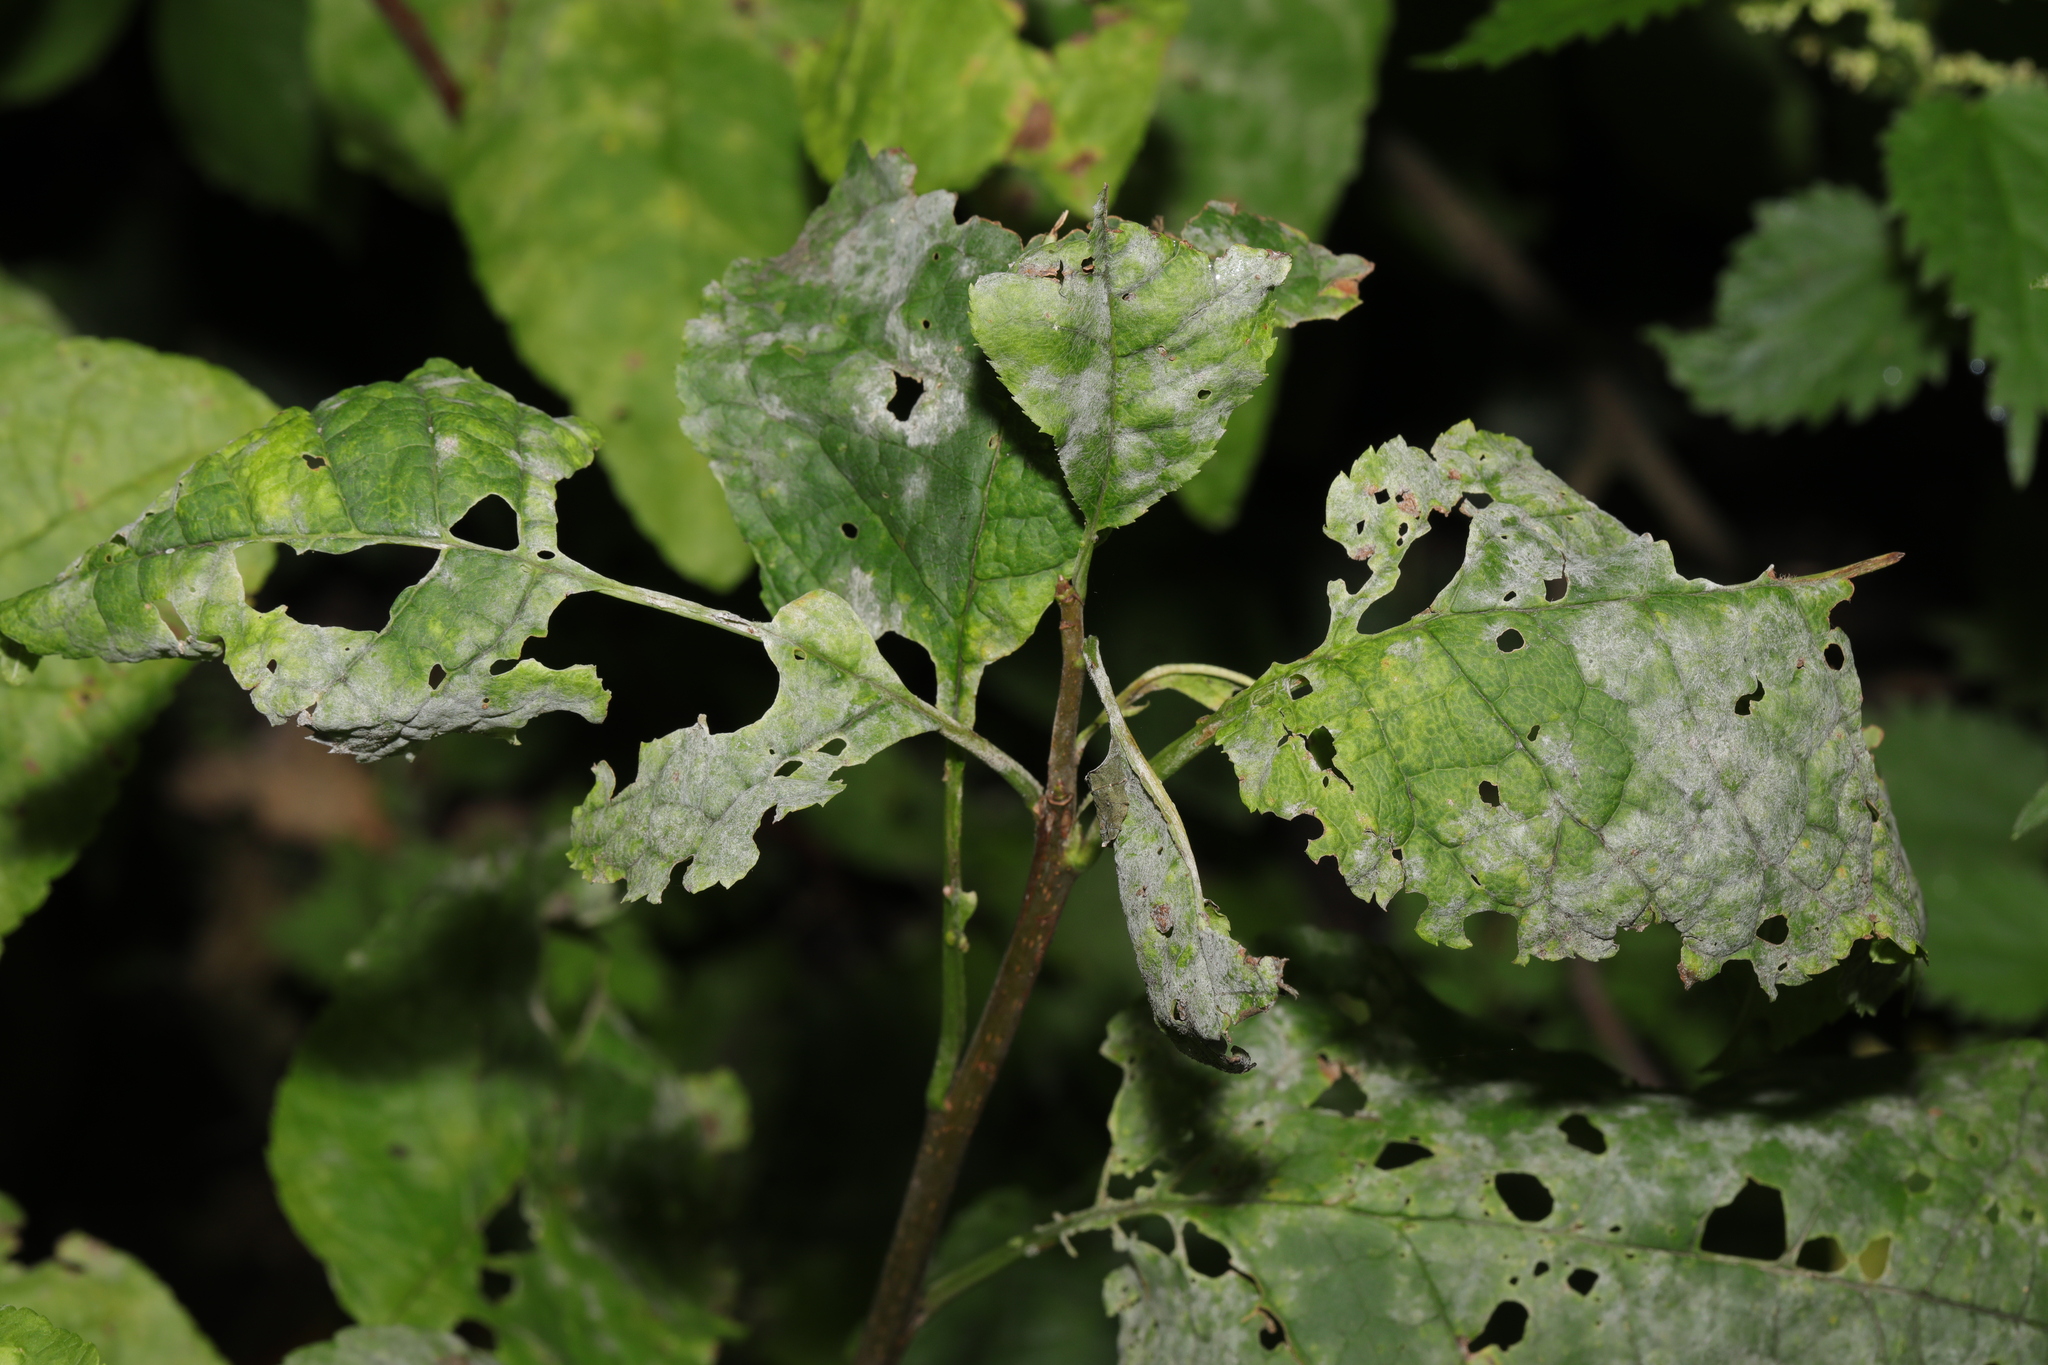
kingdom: Plantae
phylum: Tracheophyta
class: Magnoliopsida
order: Malpighiales
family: Salicaceae
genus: Populus
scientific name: Populus tremula
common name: European aspen
